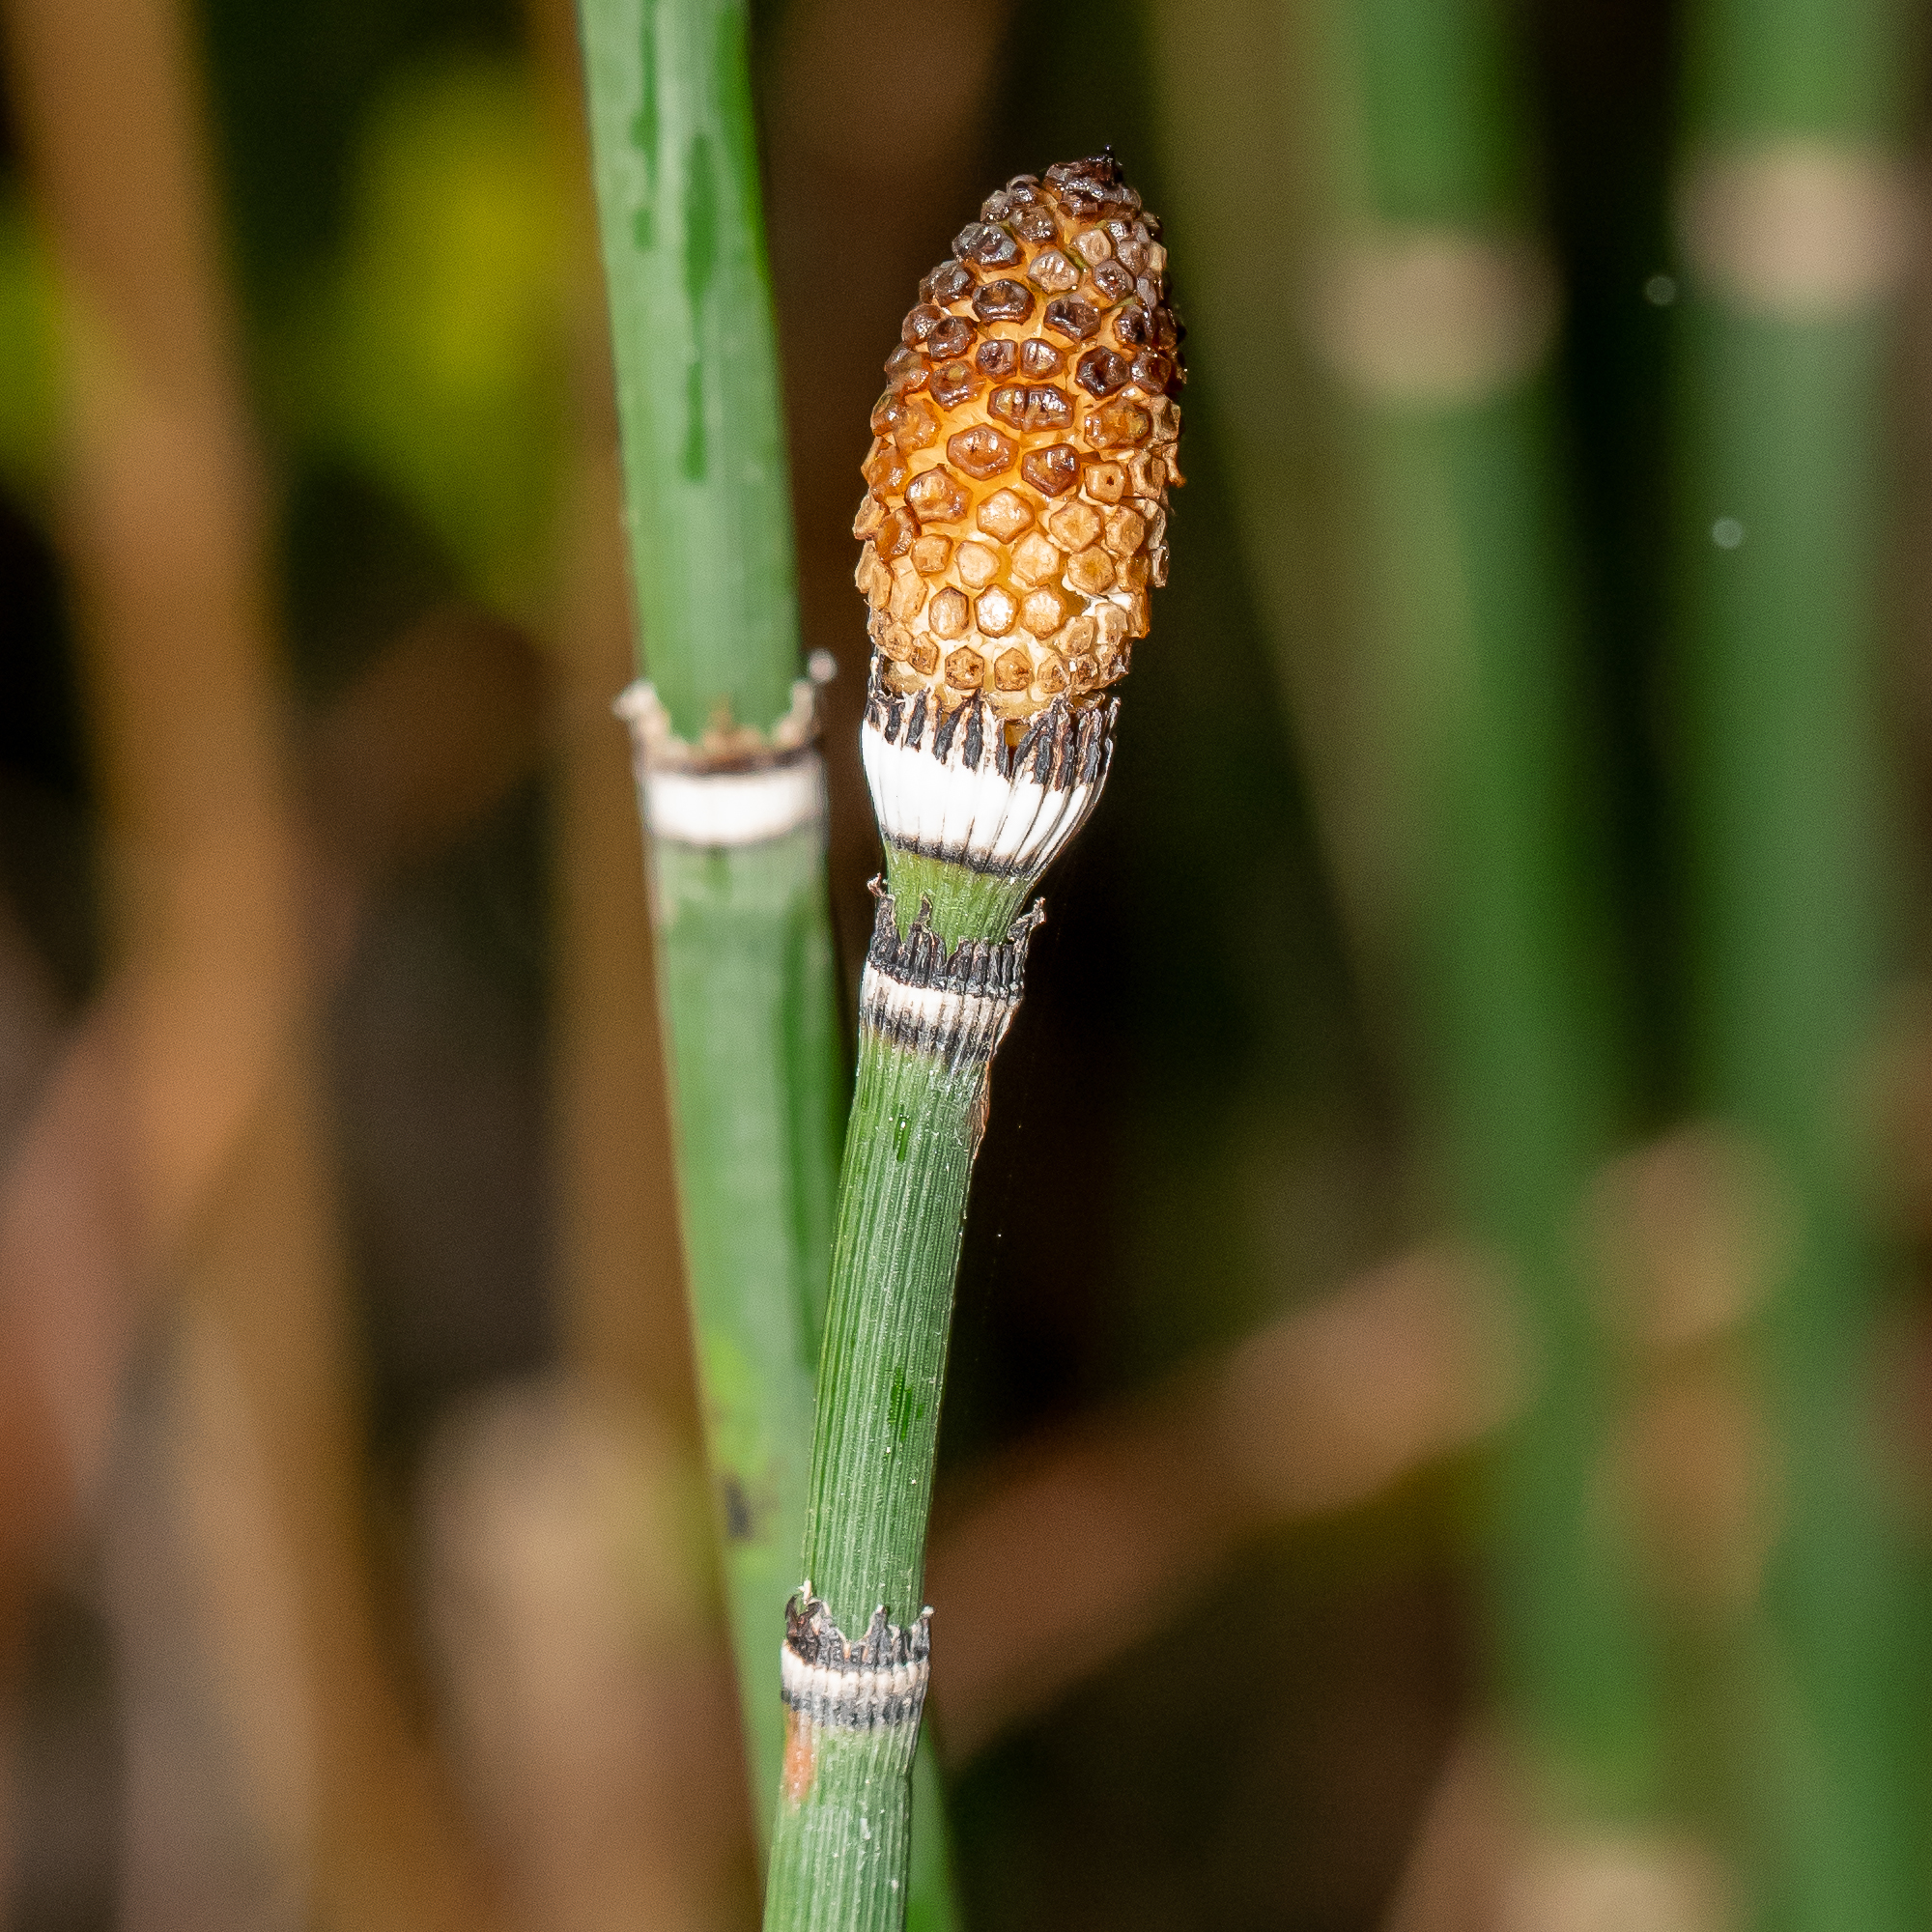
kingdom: Plantae
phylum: Tracheophyta
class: Polypodiopsida
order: Equisetales
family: Equisetaceae
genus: Equisetum
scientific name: Equisetum praealtum
